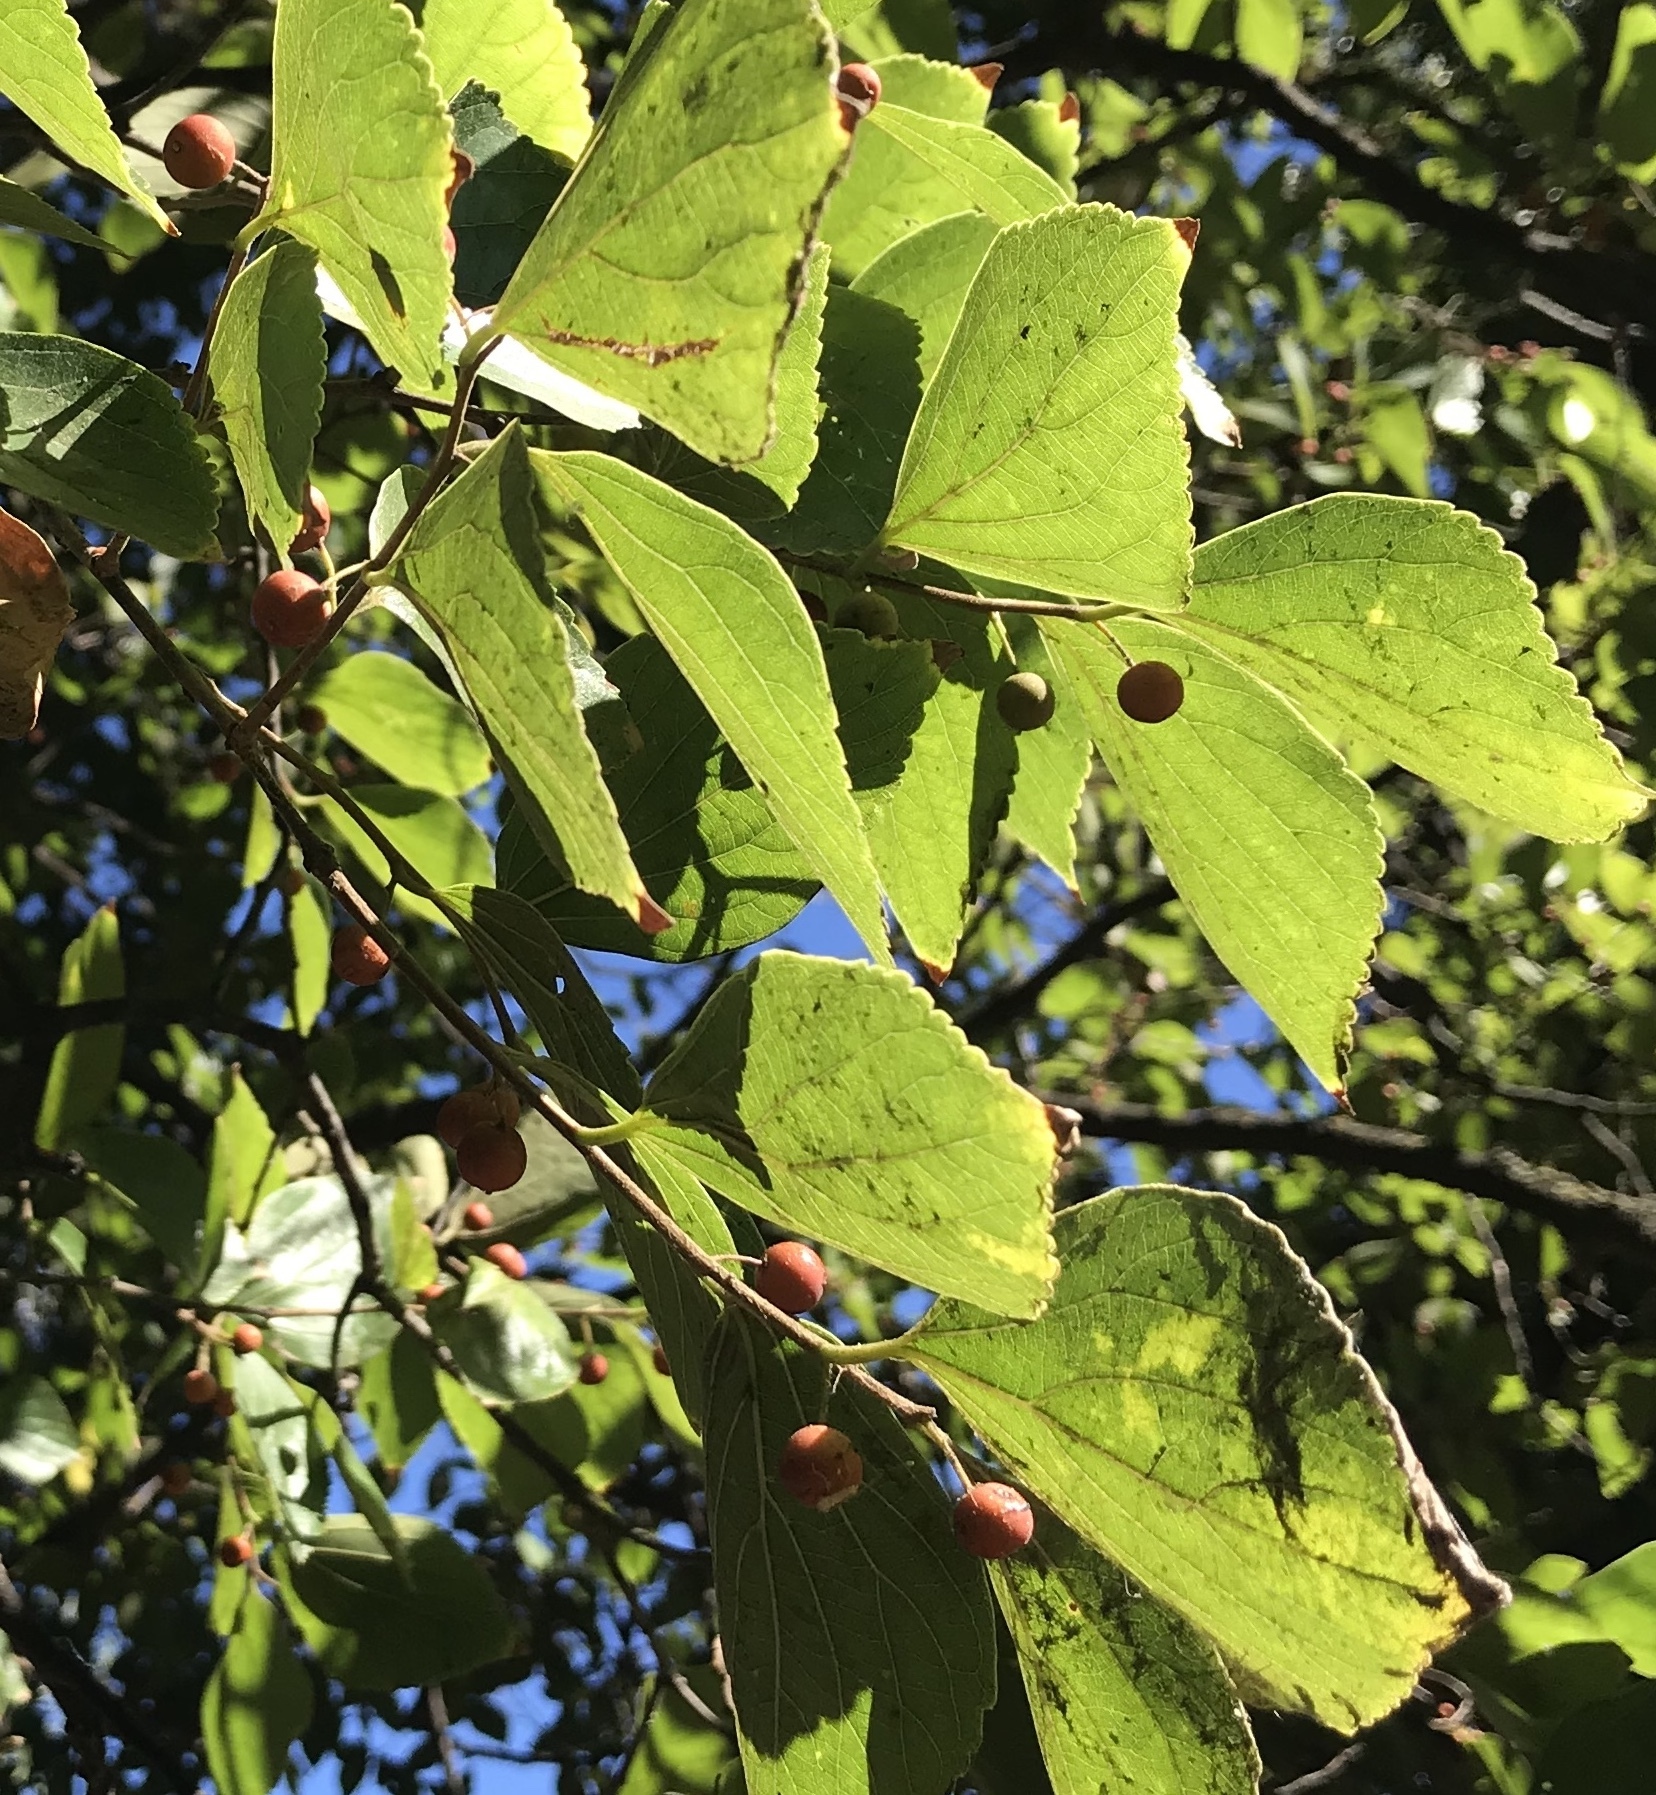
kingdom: Plantae
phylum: Tracheophyta
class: Magnoliopsida
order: Rosales
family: Cannabaceae
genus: Celtis
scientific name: Celtis occidentalis
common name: Common hackberry
